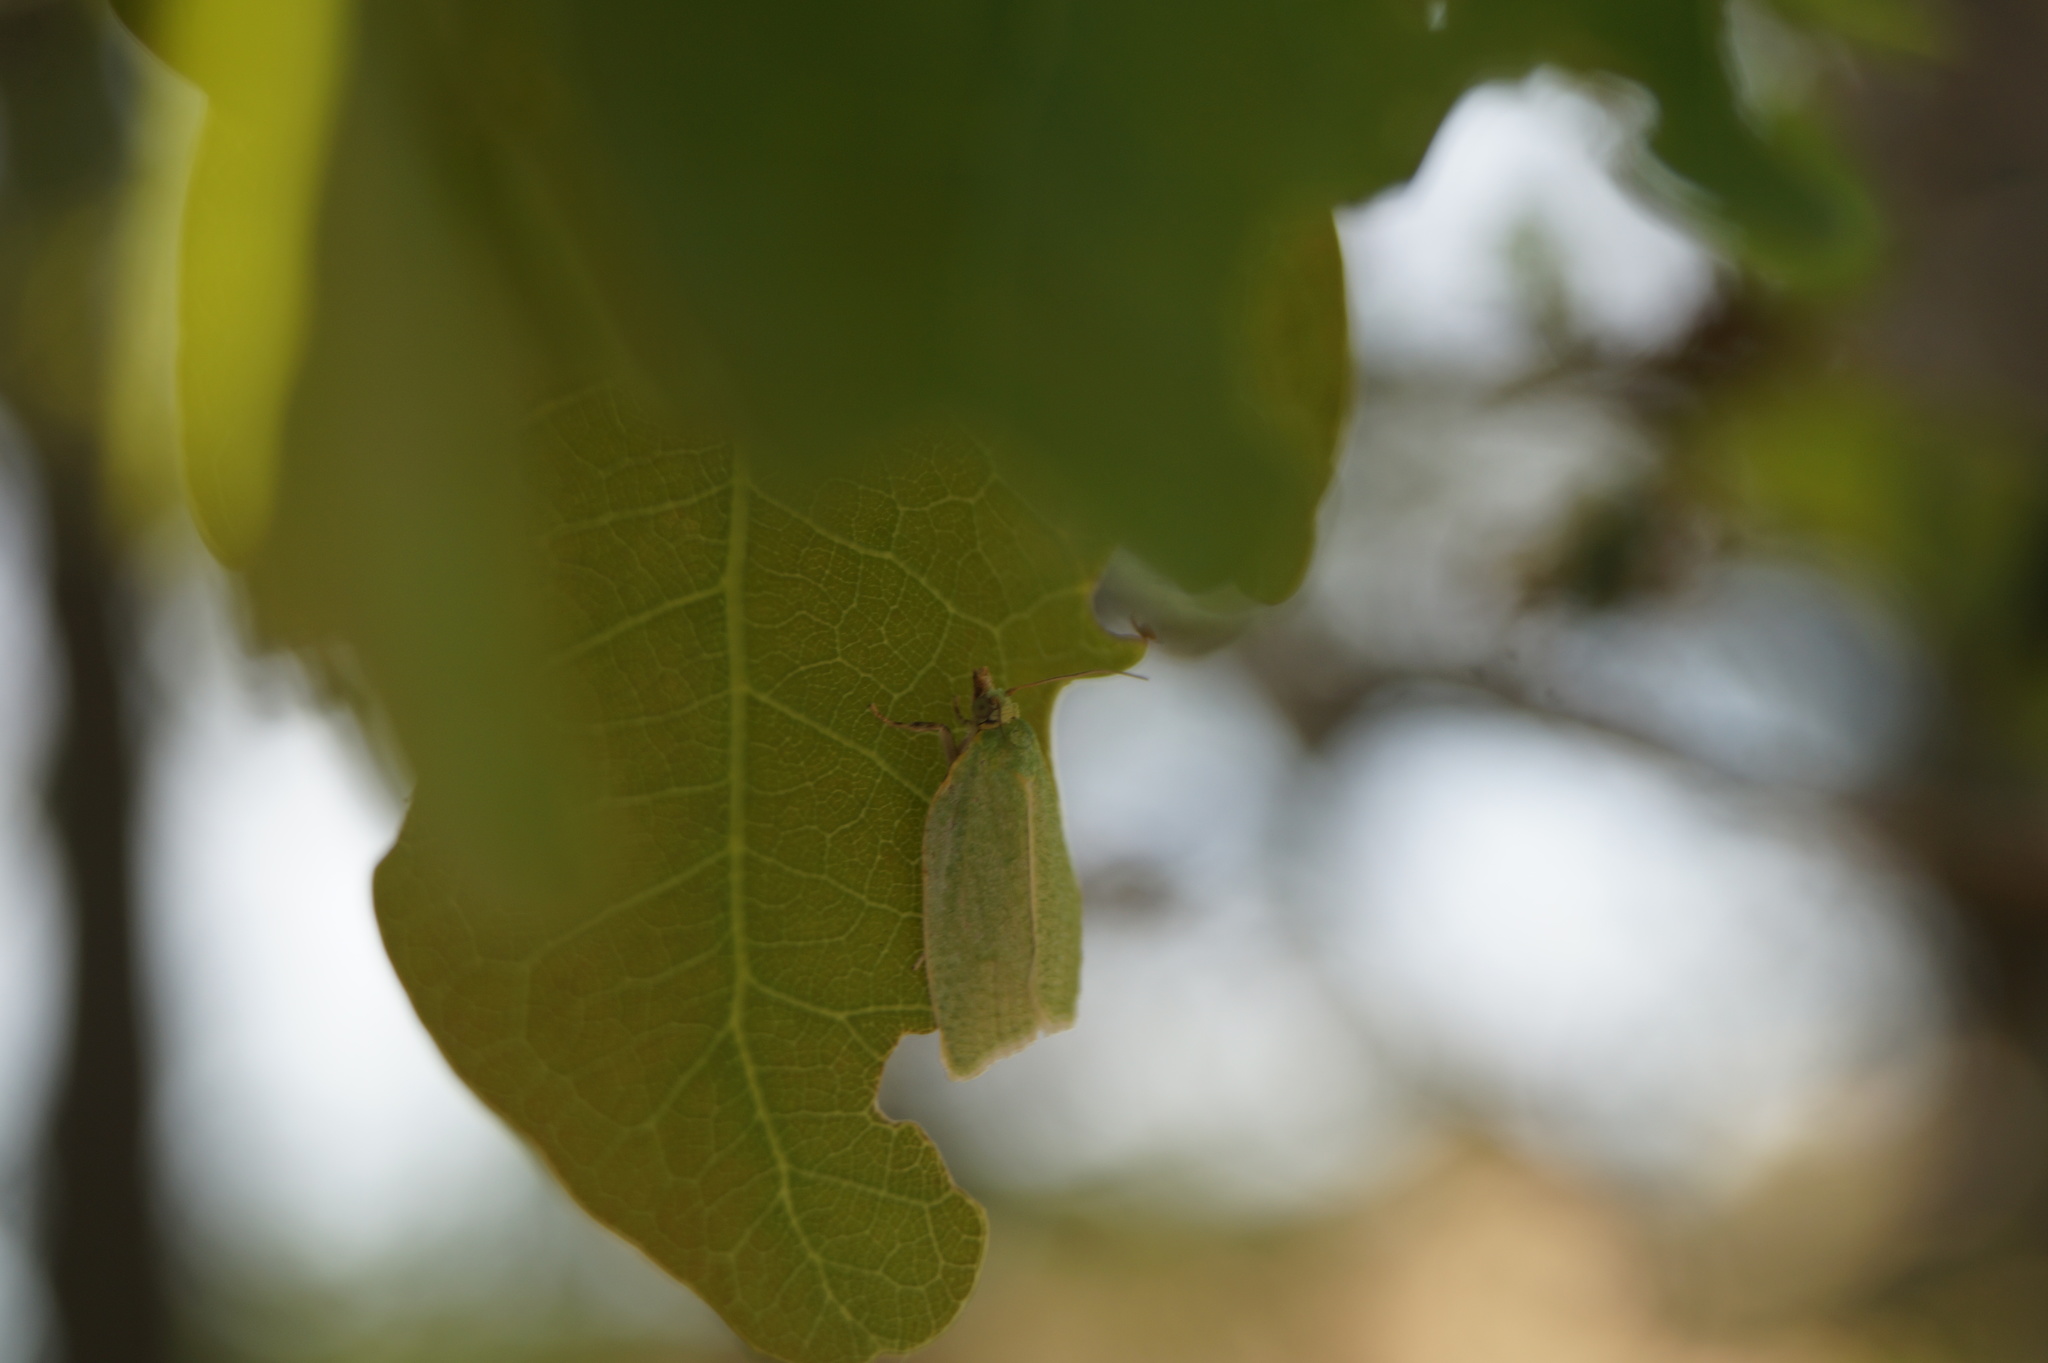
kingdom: Animalia
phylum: Arthropoda
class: Insecta
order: Lepidoptera
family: Tortricidae
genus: Tortrix
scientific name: Tortrix viridana
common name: Green oak tortrix
